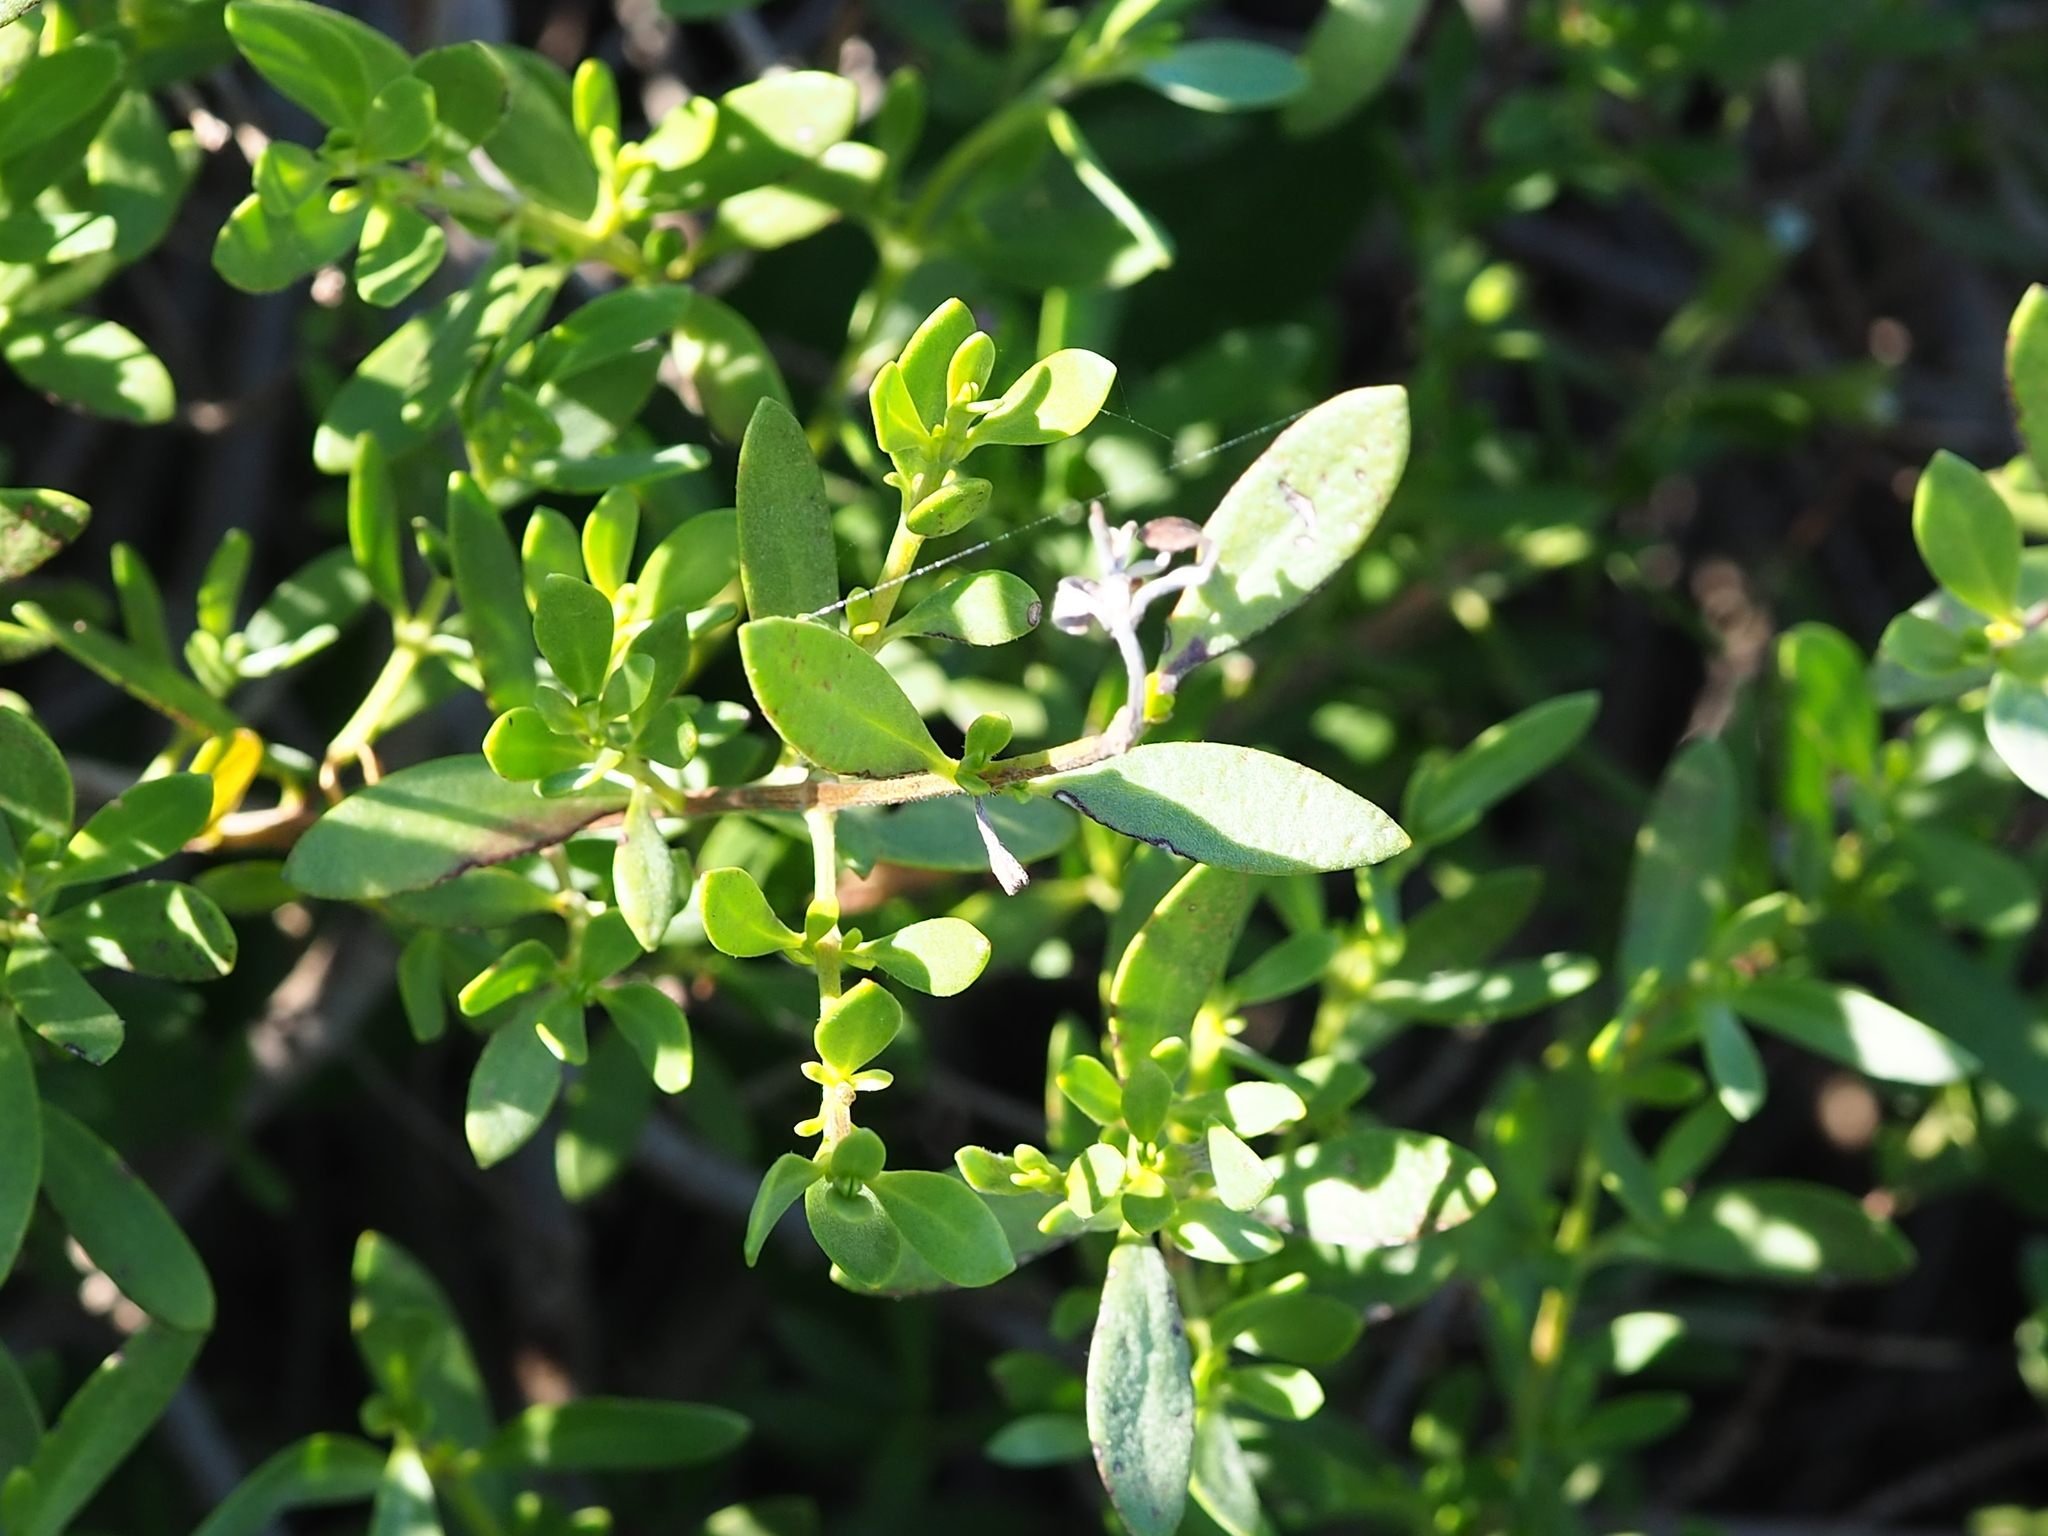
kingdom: Plantae
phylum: Tracheophyta
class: Magnoliopsida
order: Myrtales
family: Lythraceae
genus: Pemphis
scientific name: Pemphis acidula
